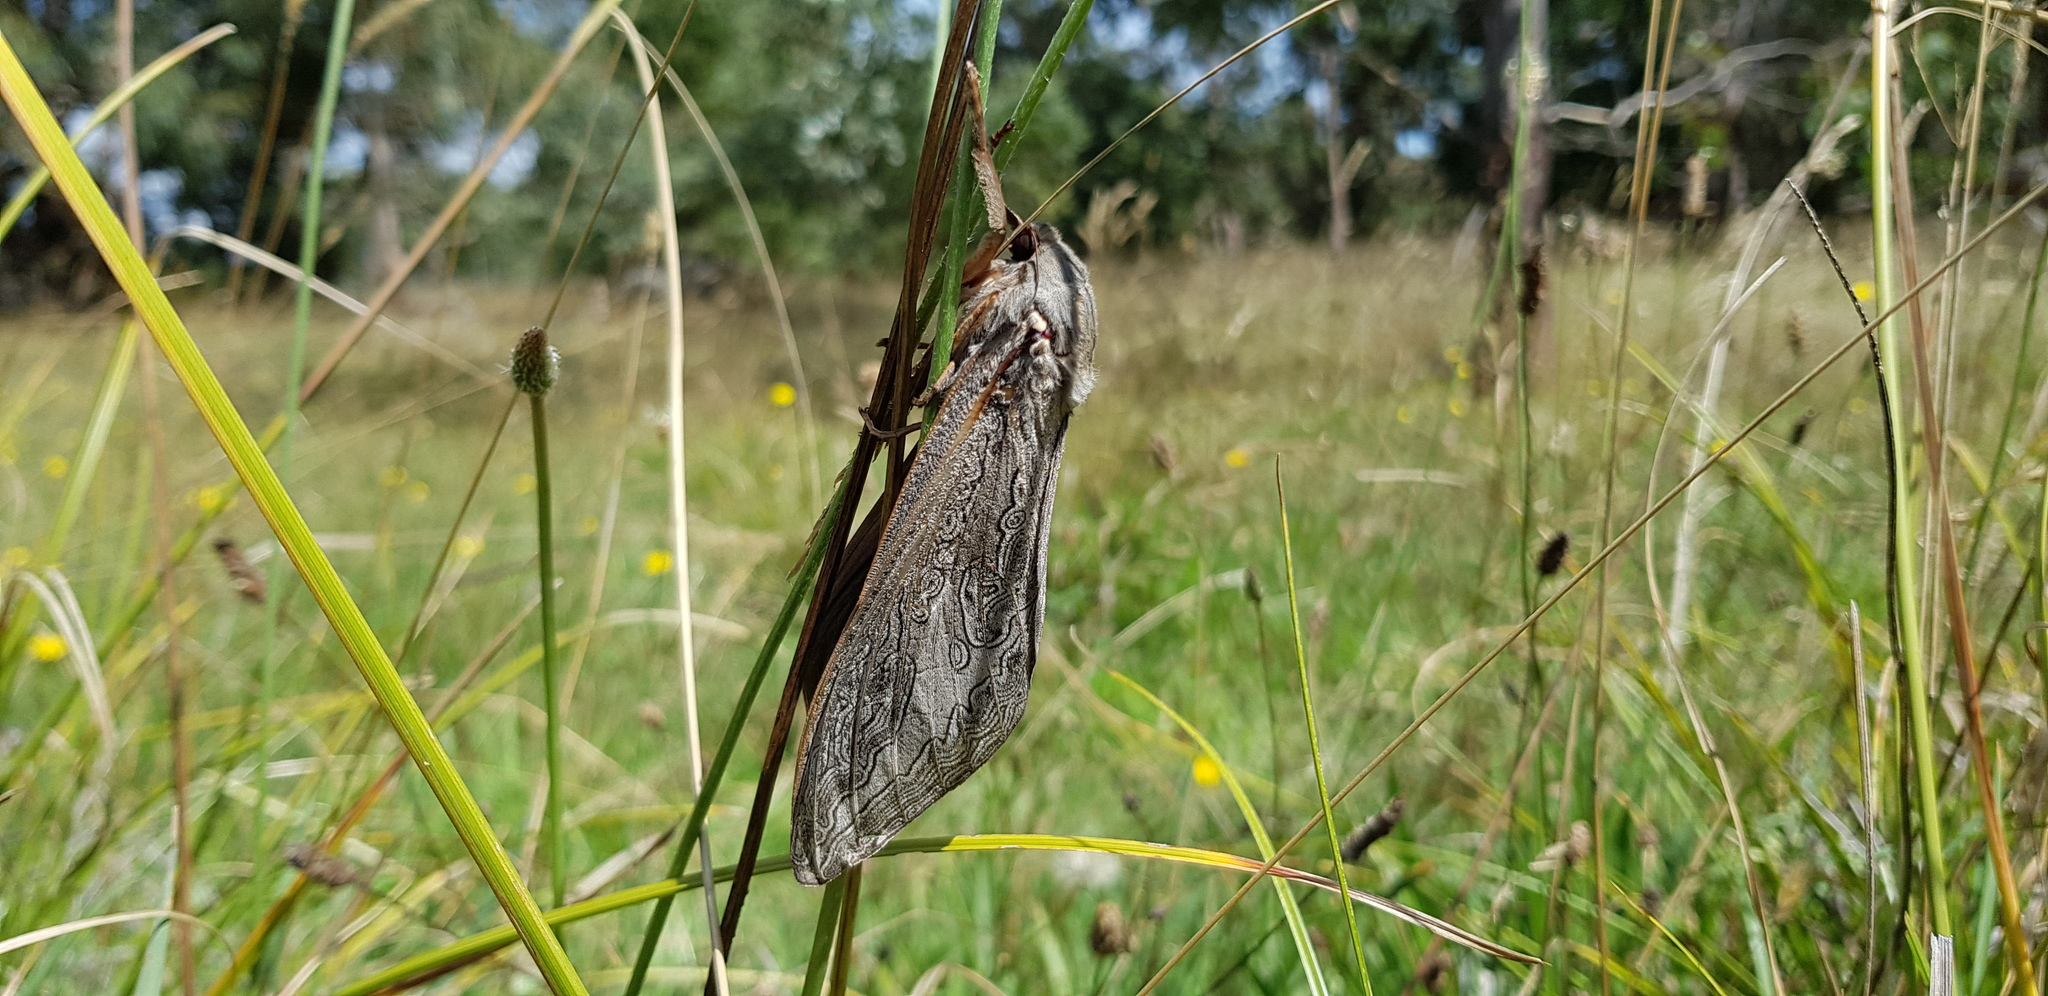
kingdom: Animalia
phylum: Arthropoda
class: Insecta
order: Lepidoptera
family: Hepialidae
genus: Abantiades
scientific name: Abantiades labyrinthicus
